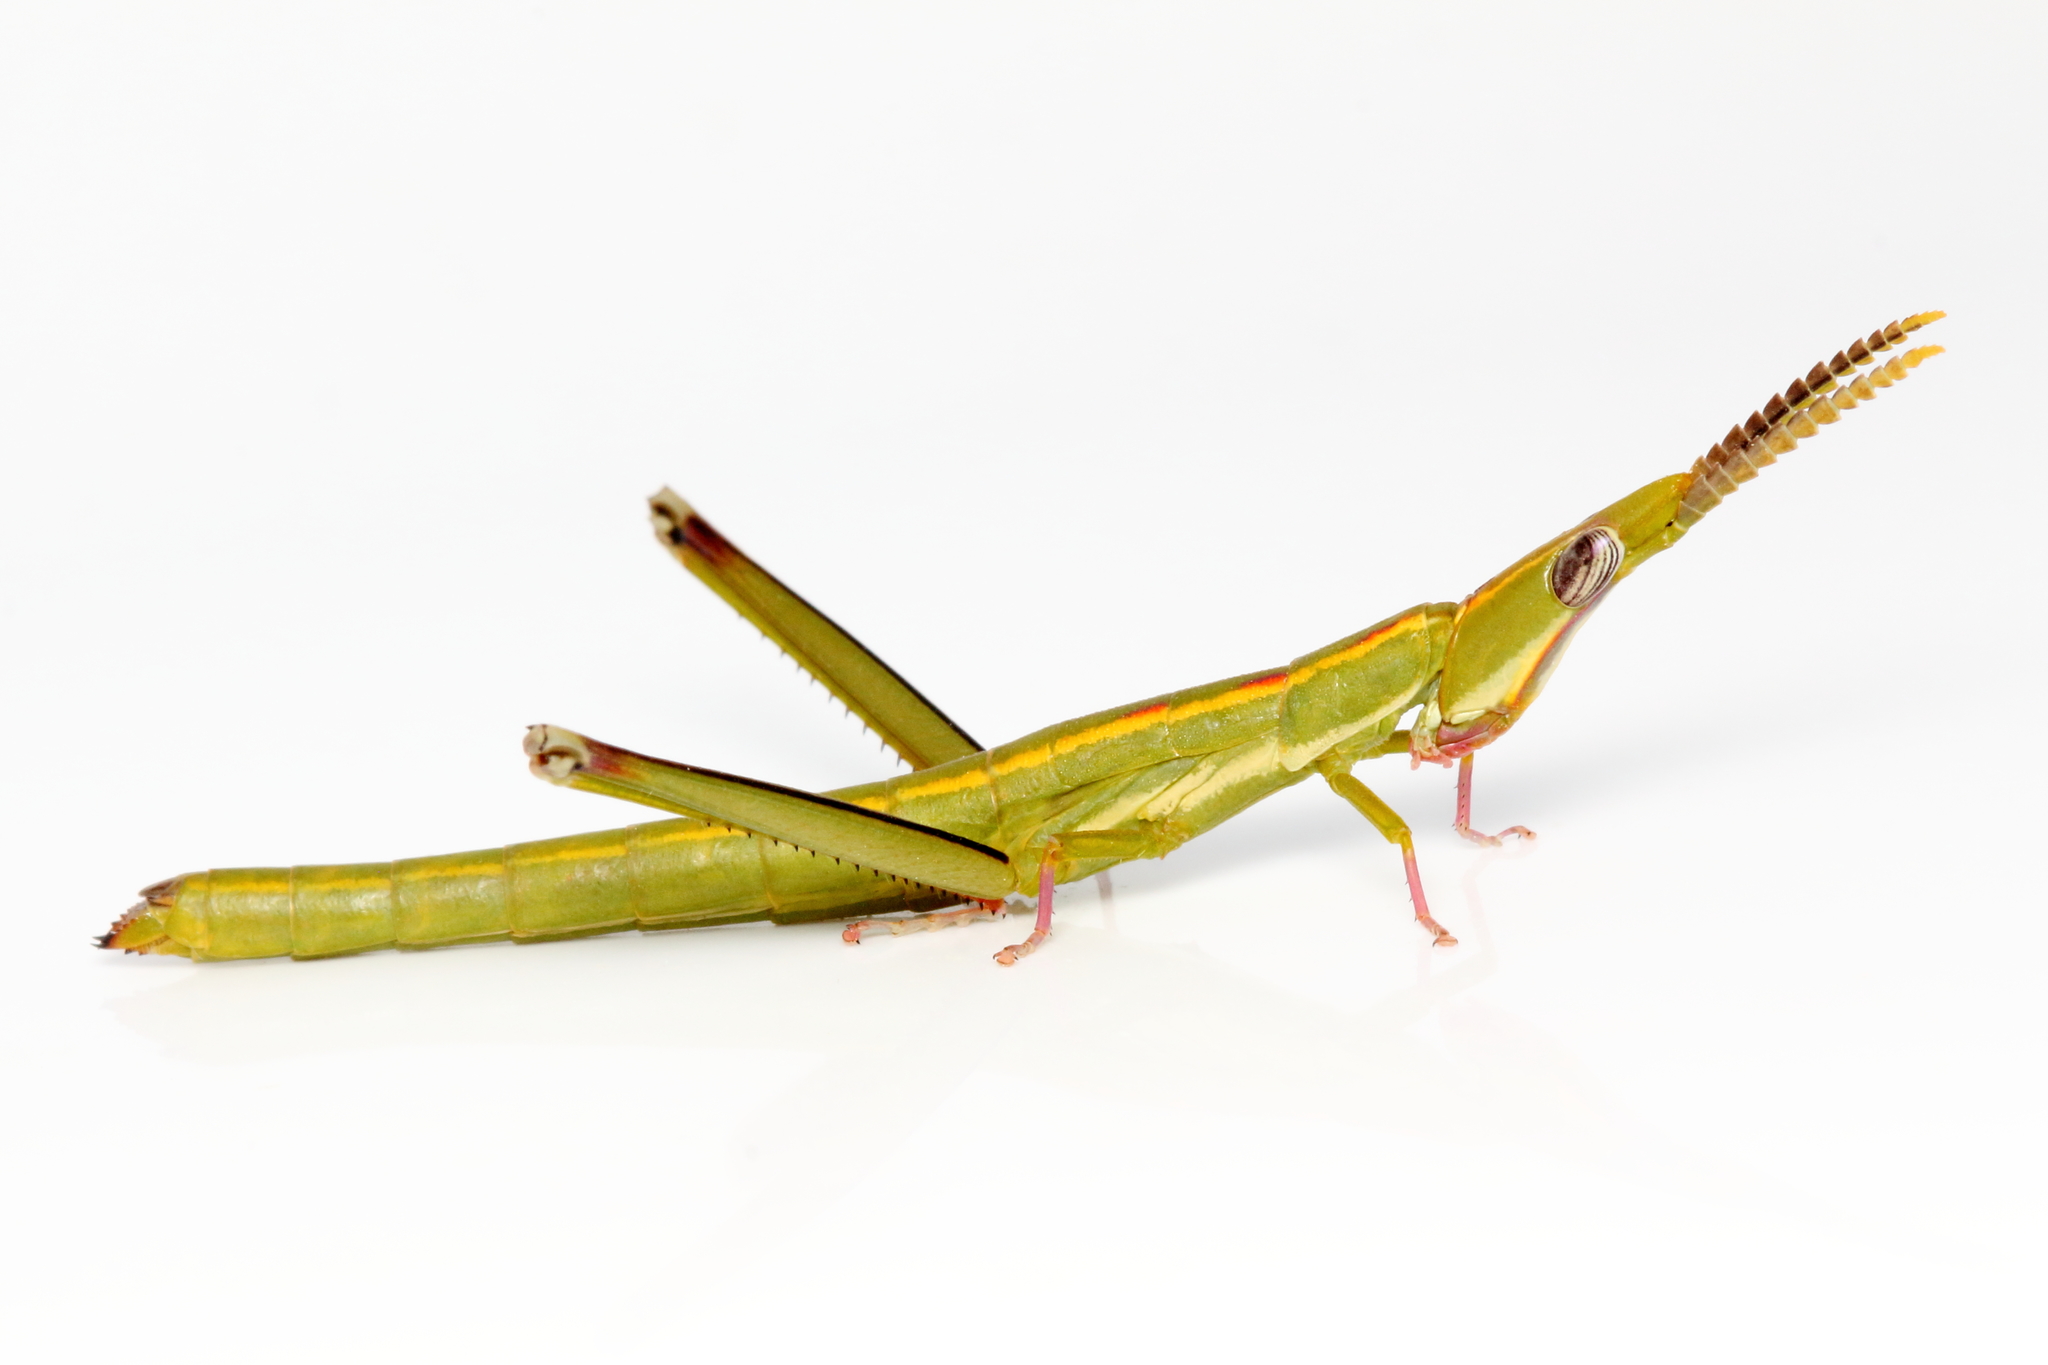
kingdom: Animalia
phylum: Arthropoda
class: Insecta
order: Orthoptera
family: Morabidae
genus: Warramaba
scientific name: Warramaba virgo
